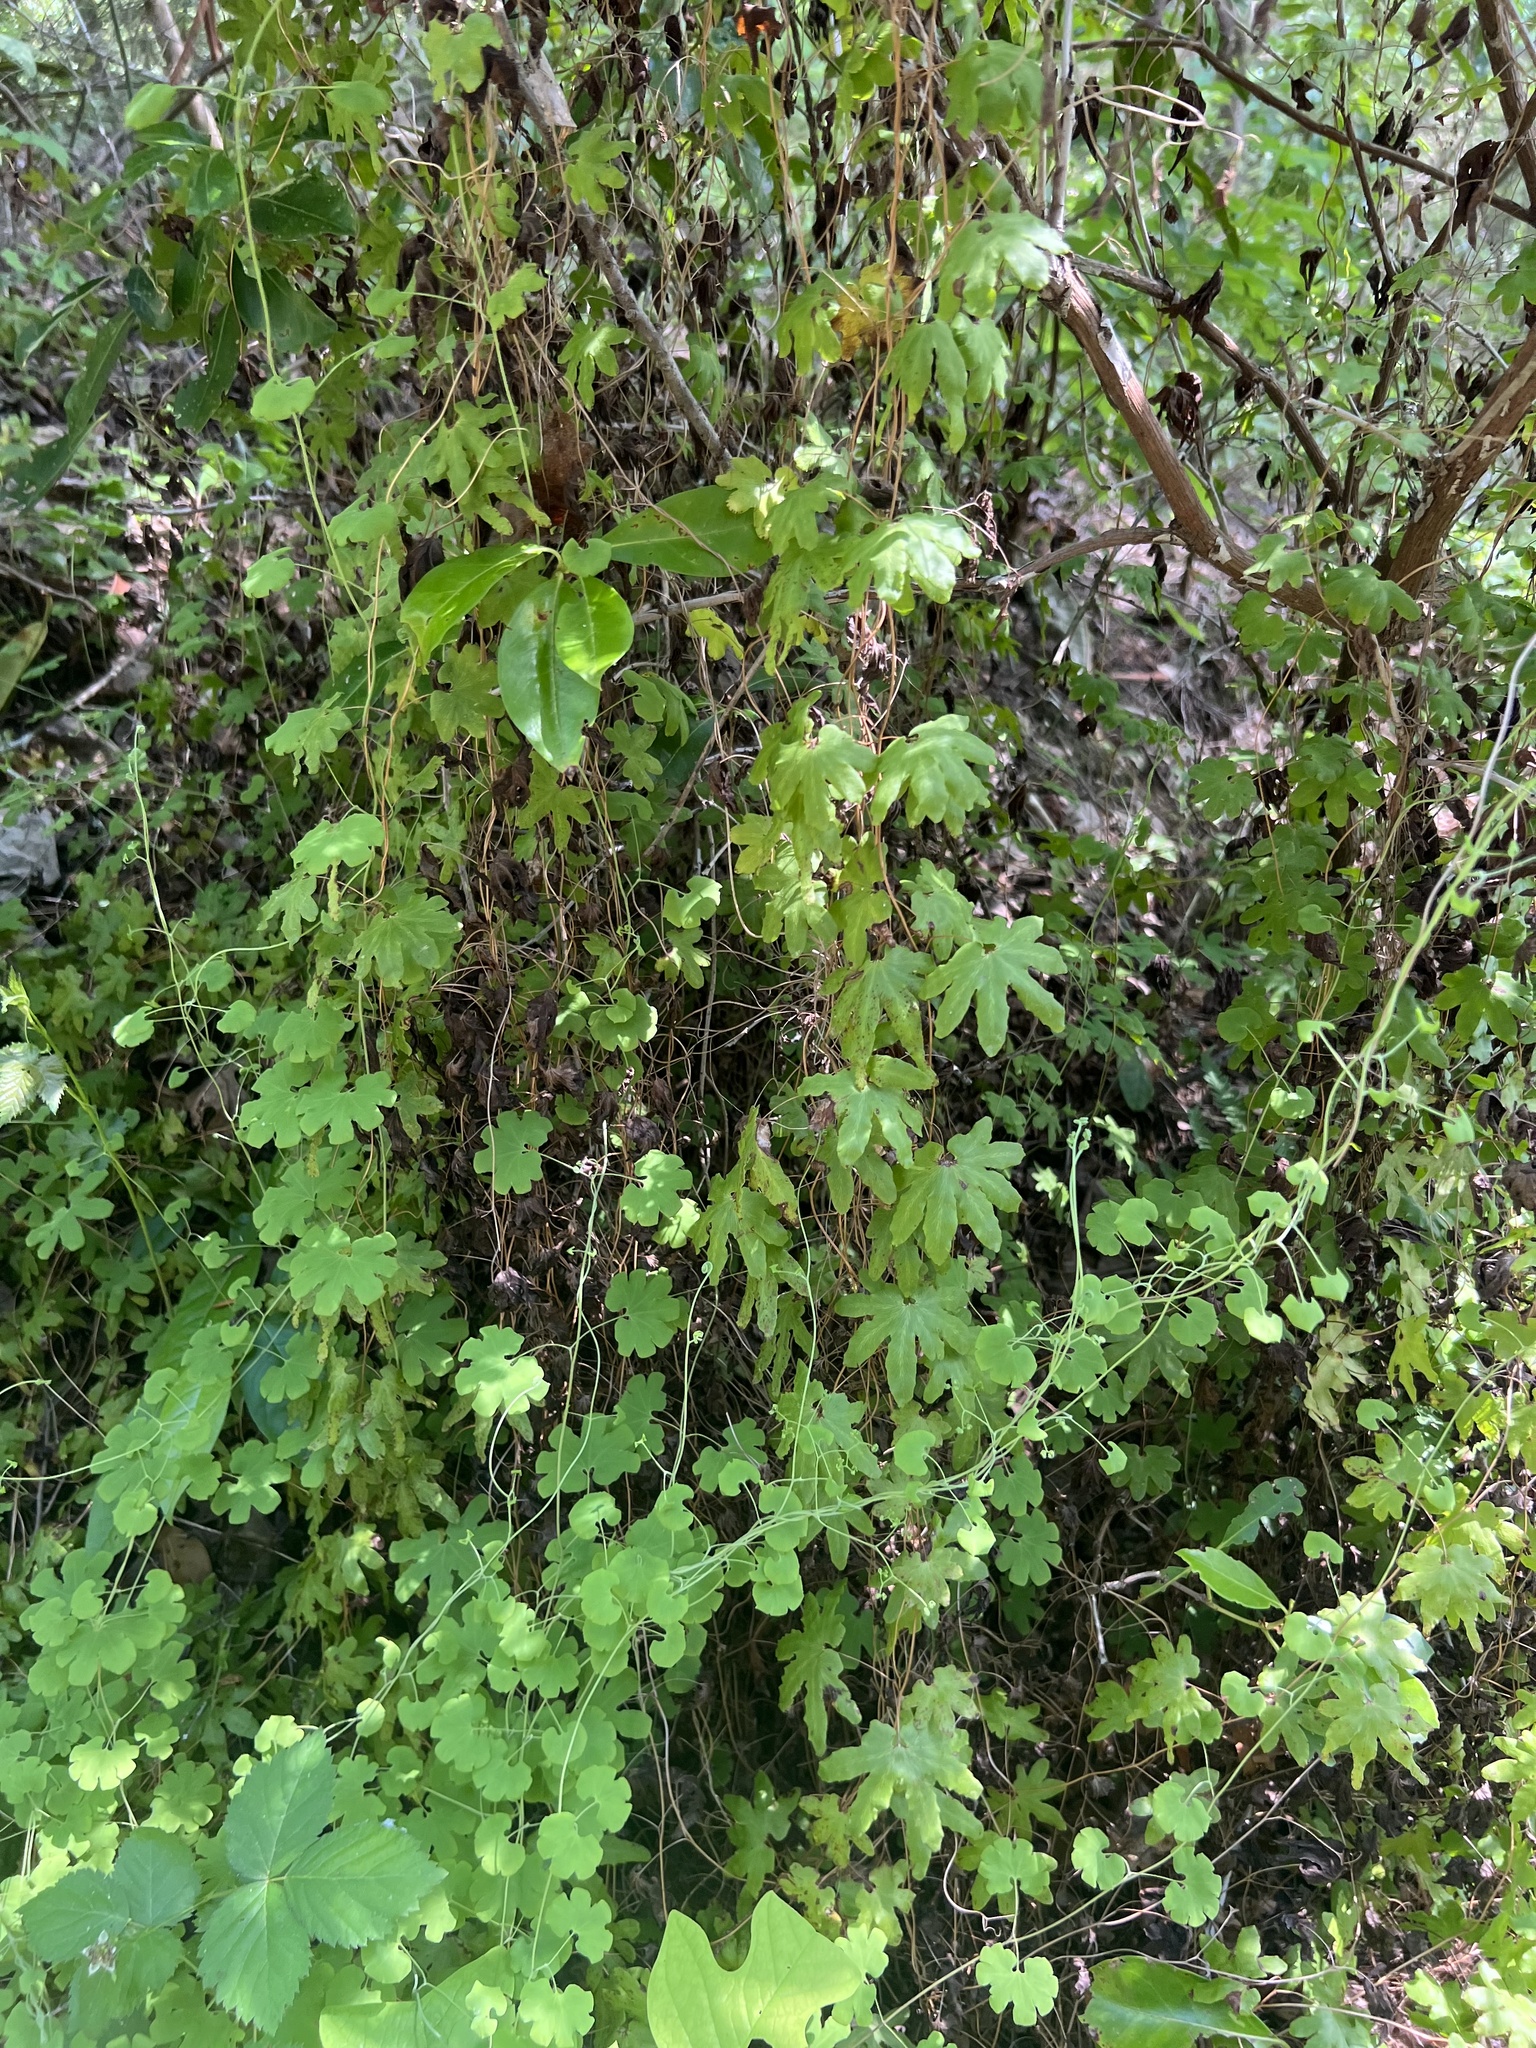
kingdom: Plantae
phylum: Tracheophyta
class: Polypodiopsida
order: Schizaeales
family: Lygodiaceae
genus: Lygodium
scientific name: Lygodium palmatum
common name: American climbing fern
